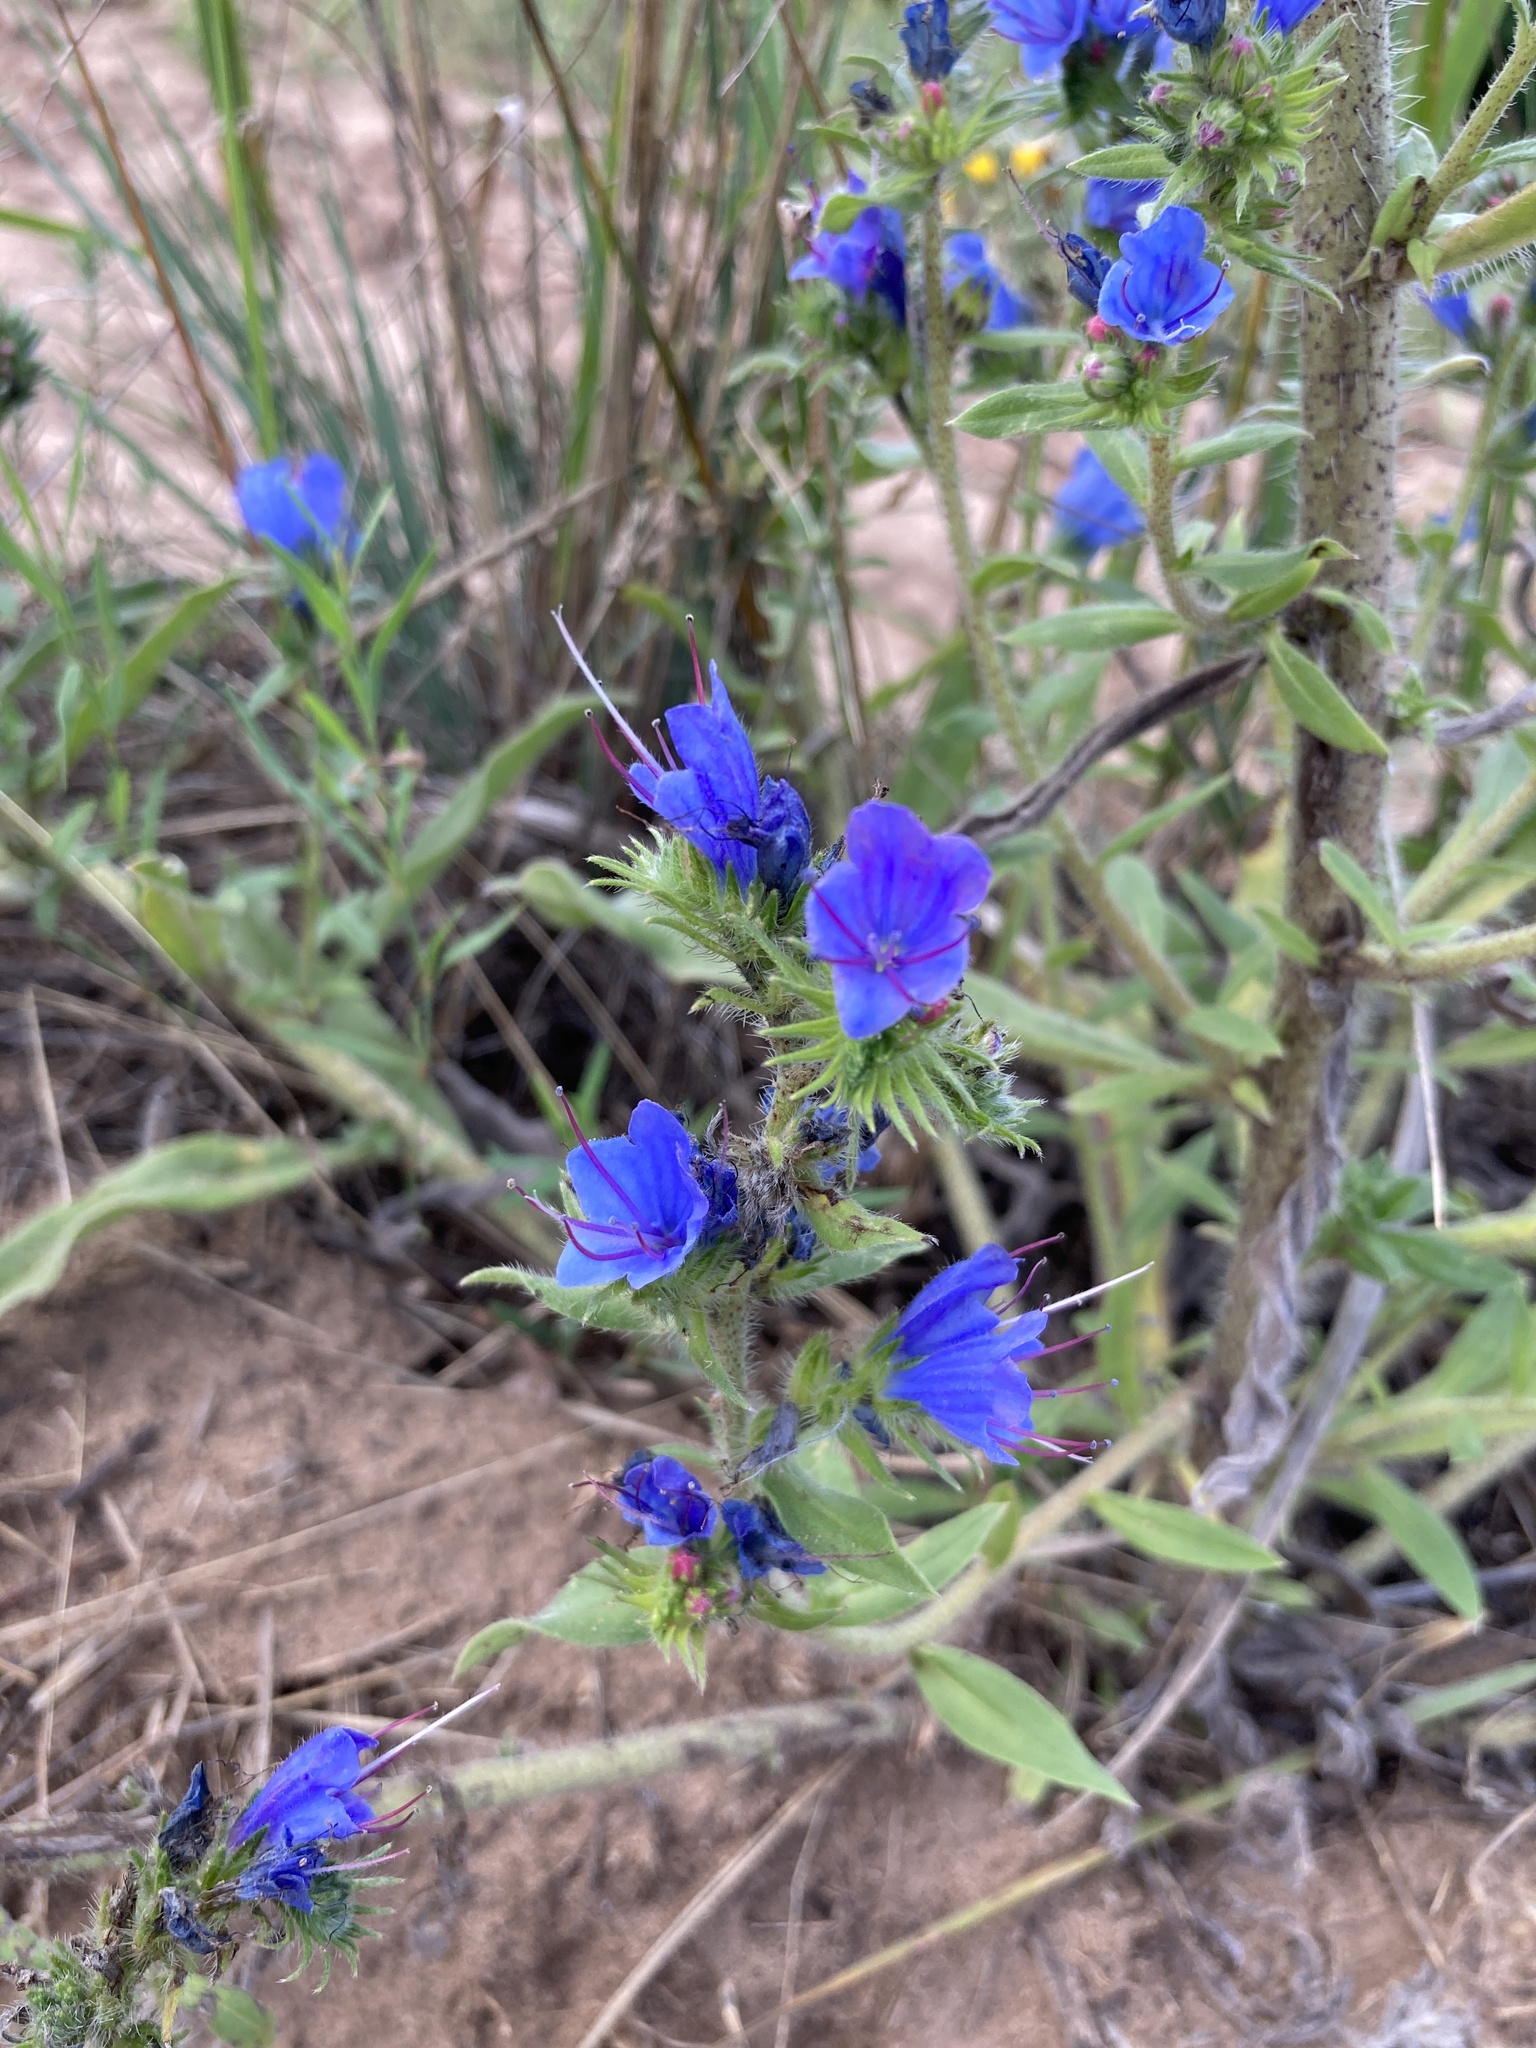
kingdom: Plantae
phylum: Tracheophyta
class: Magnoliopsida
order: Boraginales
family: Boraginaceae
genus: Echium
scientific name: Echium vulgare
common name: Common viper's bugloss
